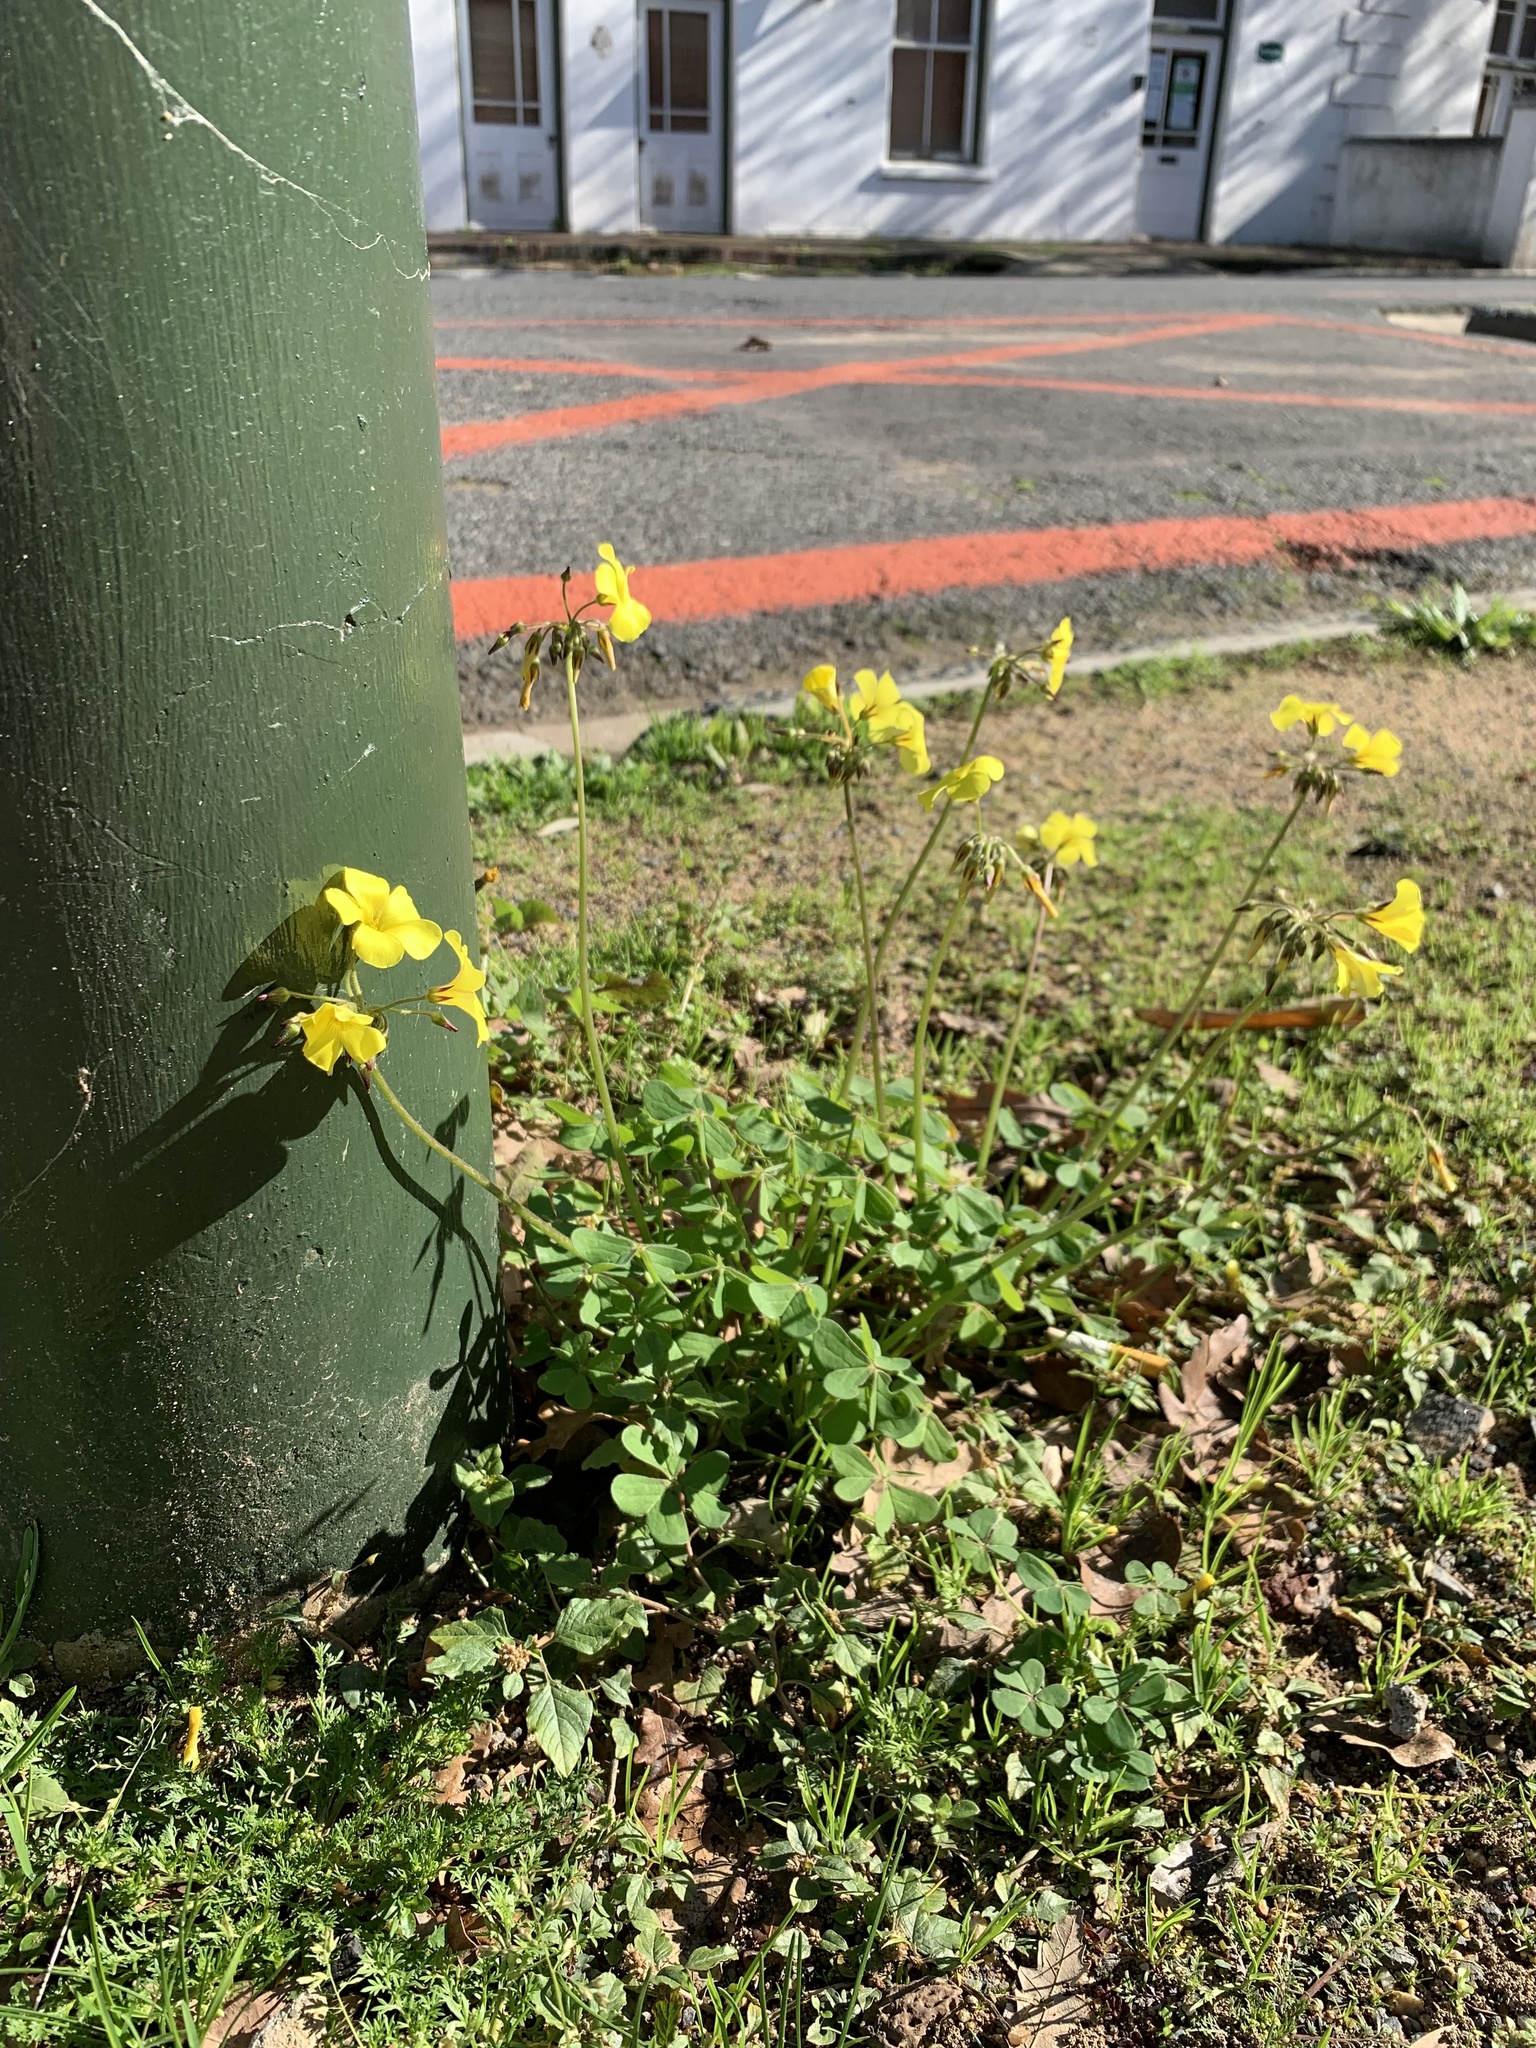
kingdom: Plantae
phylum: Tracheophyta
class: Magnoliopsida
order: Oxalidales
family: Oxalidaceae
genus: Oxalis
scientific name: Oxalis pes-caprae
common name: Bermuda-buttercup
